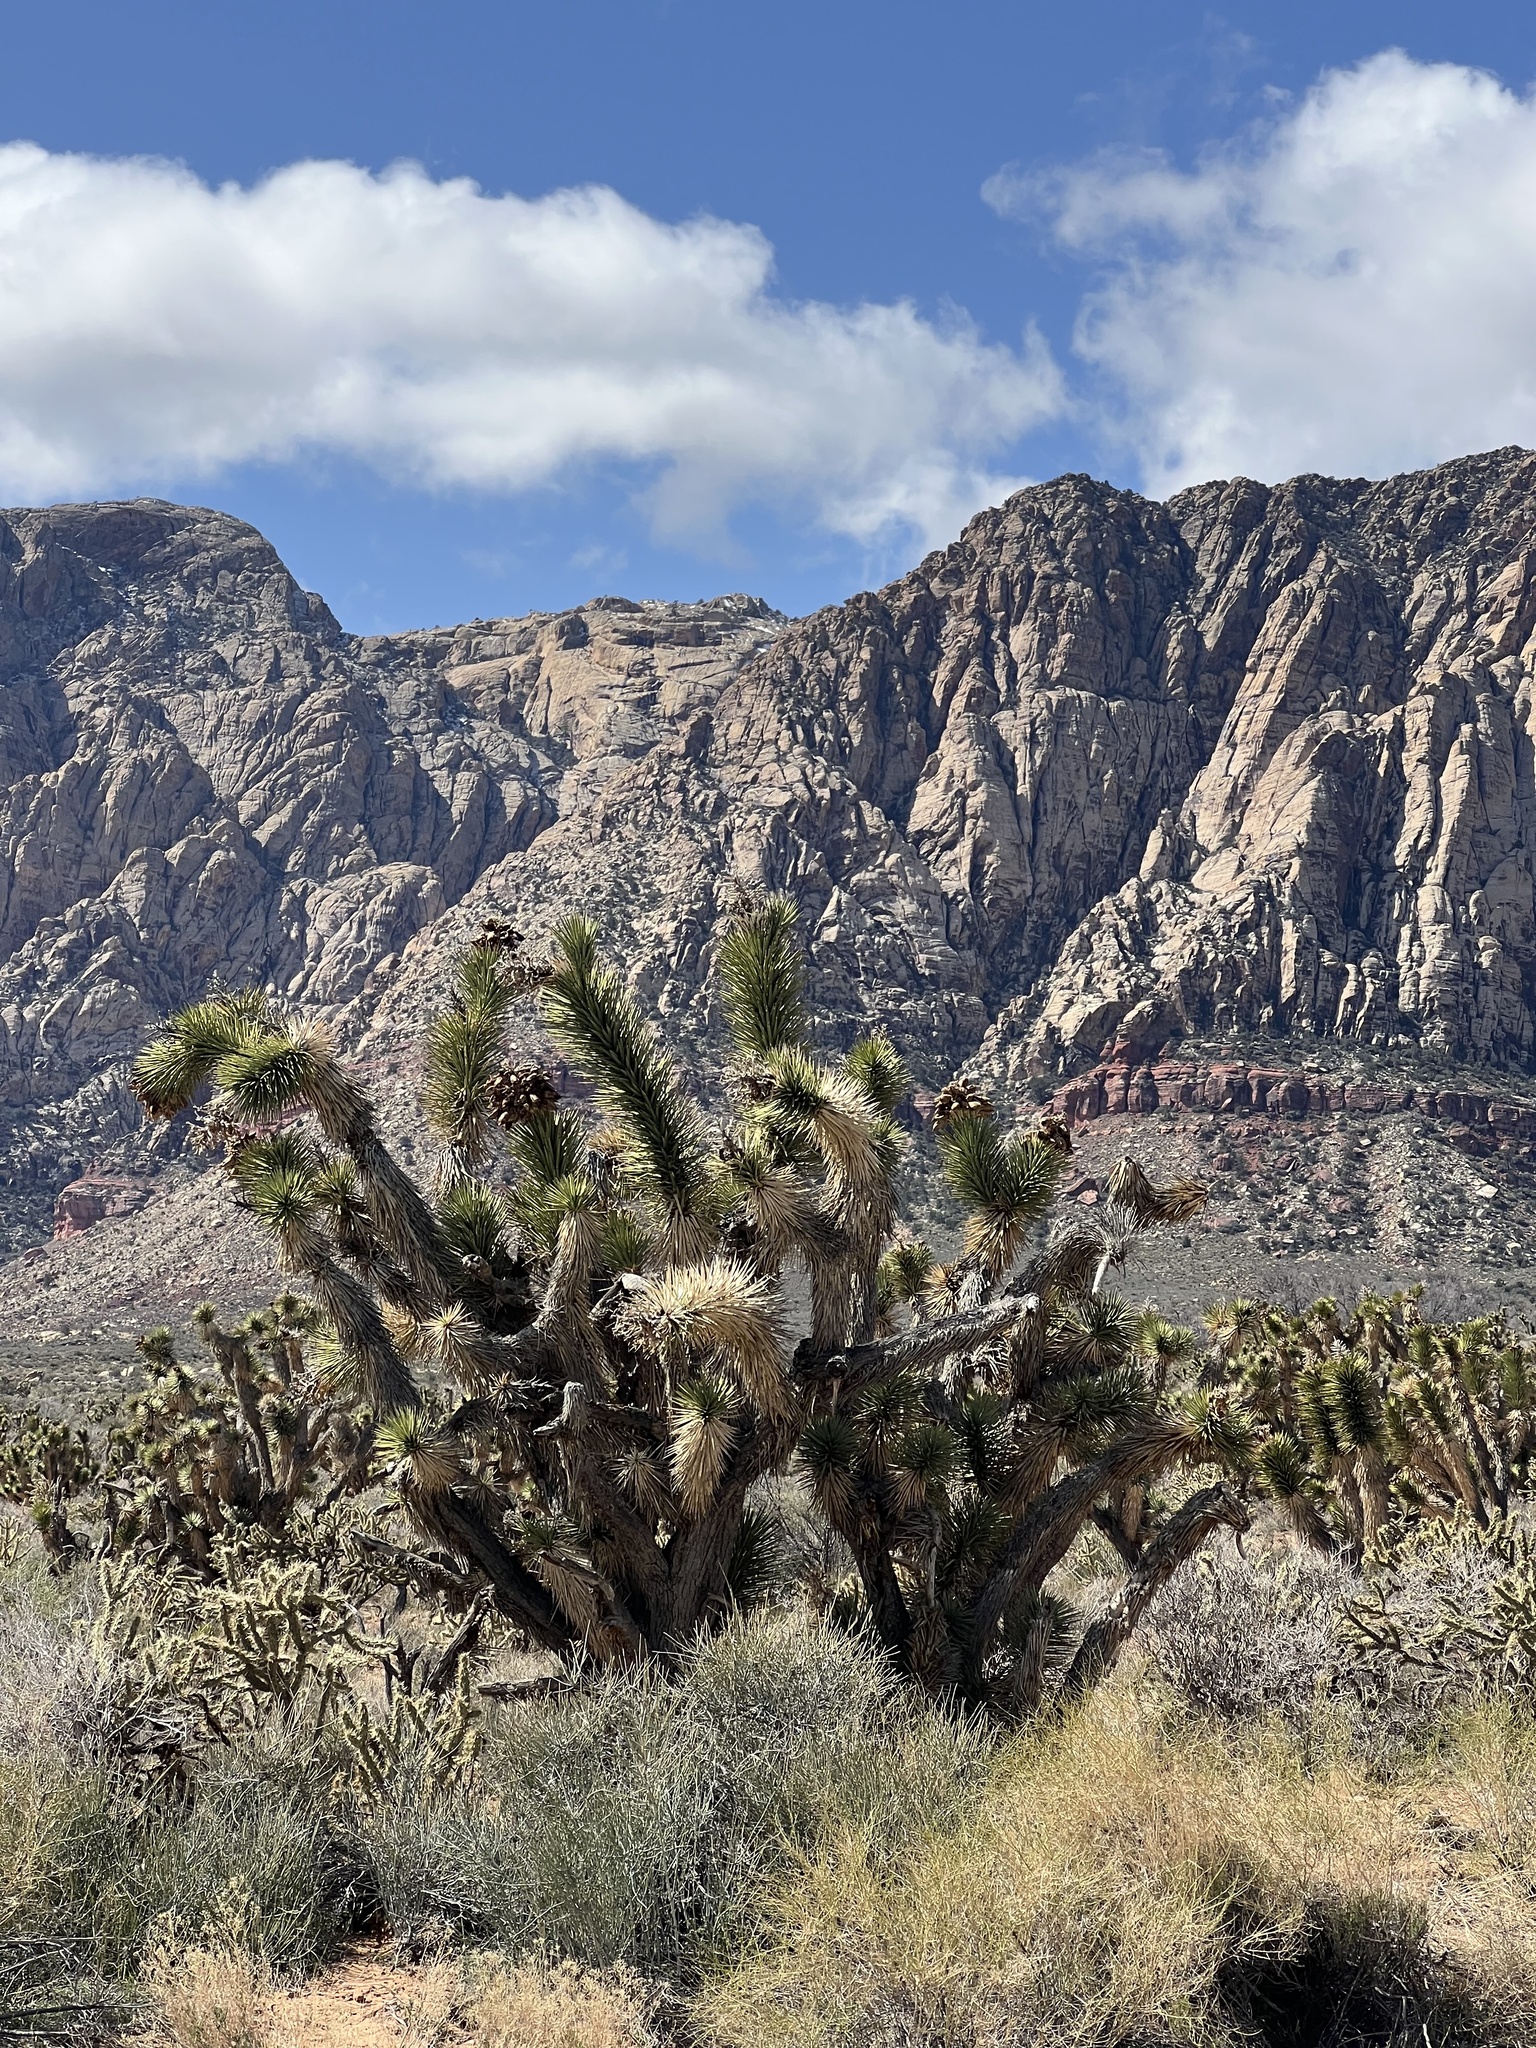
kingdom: Plantae
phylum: Tracheophyta
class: Liliopsida
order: Asparagales
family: Asparagaceae
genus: Yucca
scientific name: Yucca brevifolia
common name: Joshua tree
